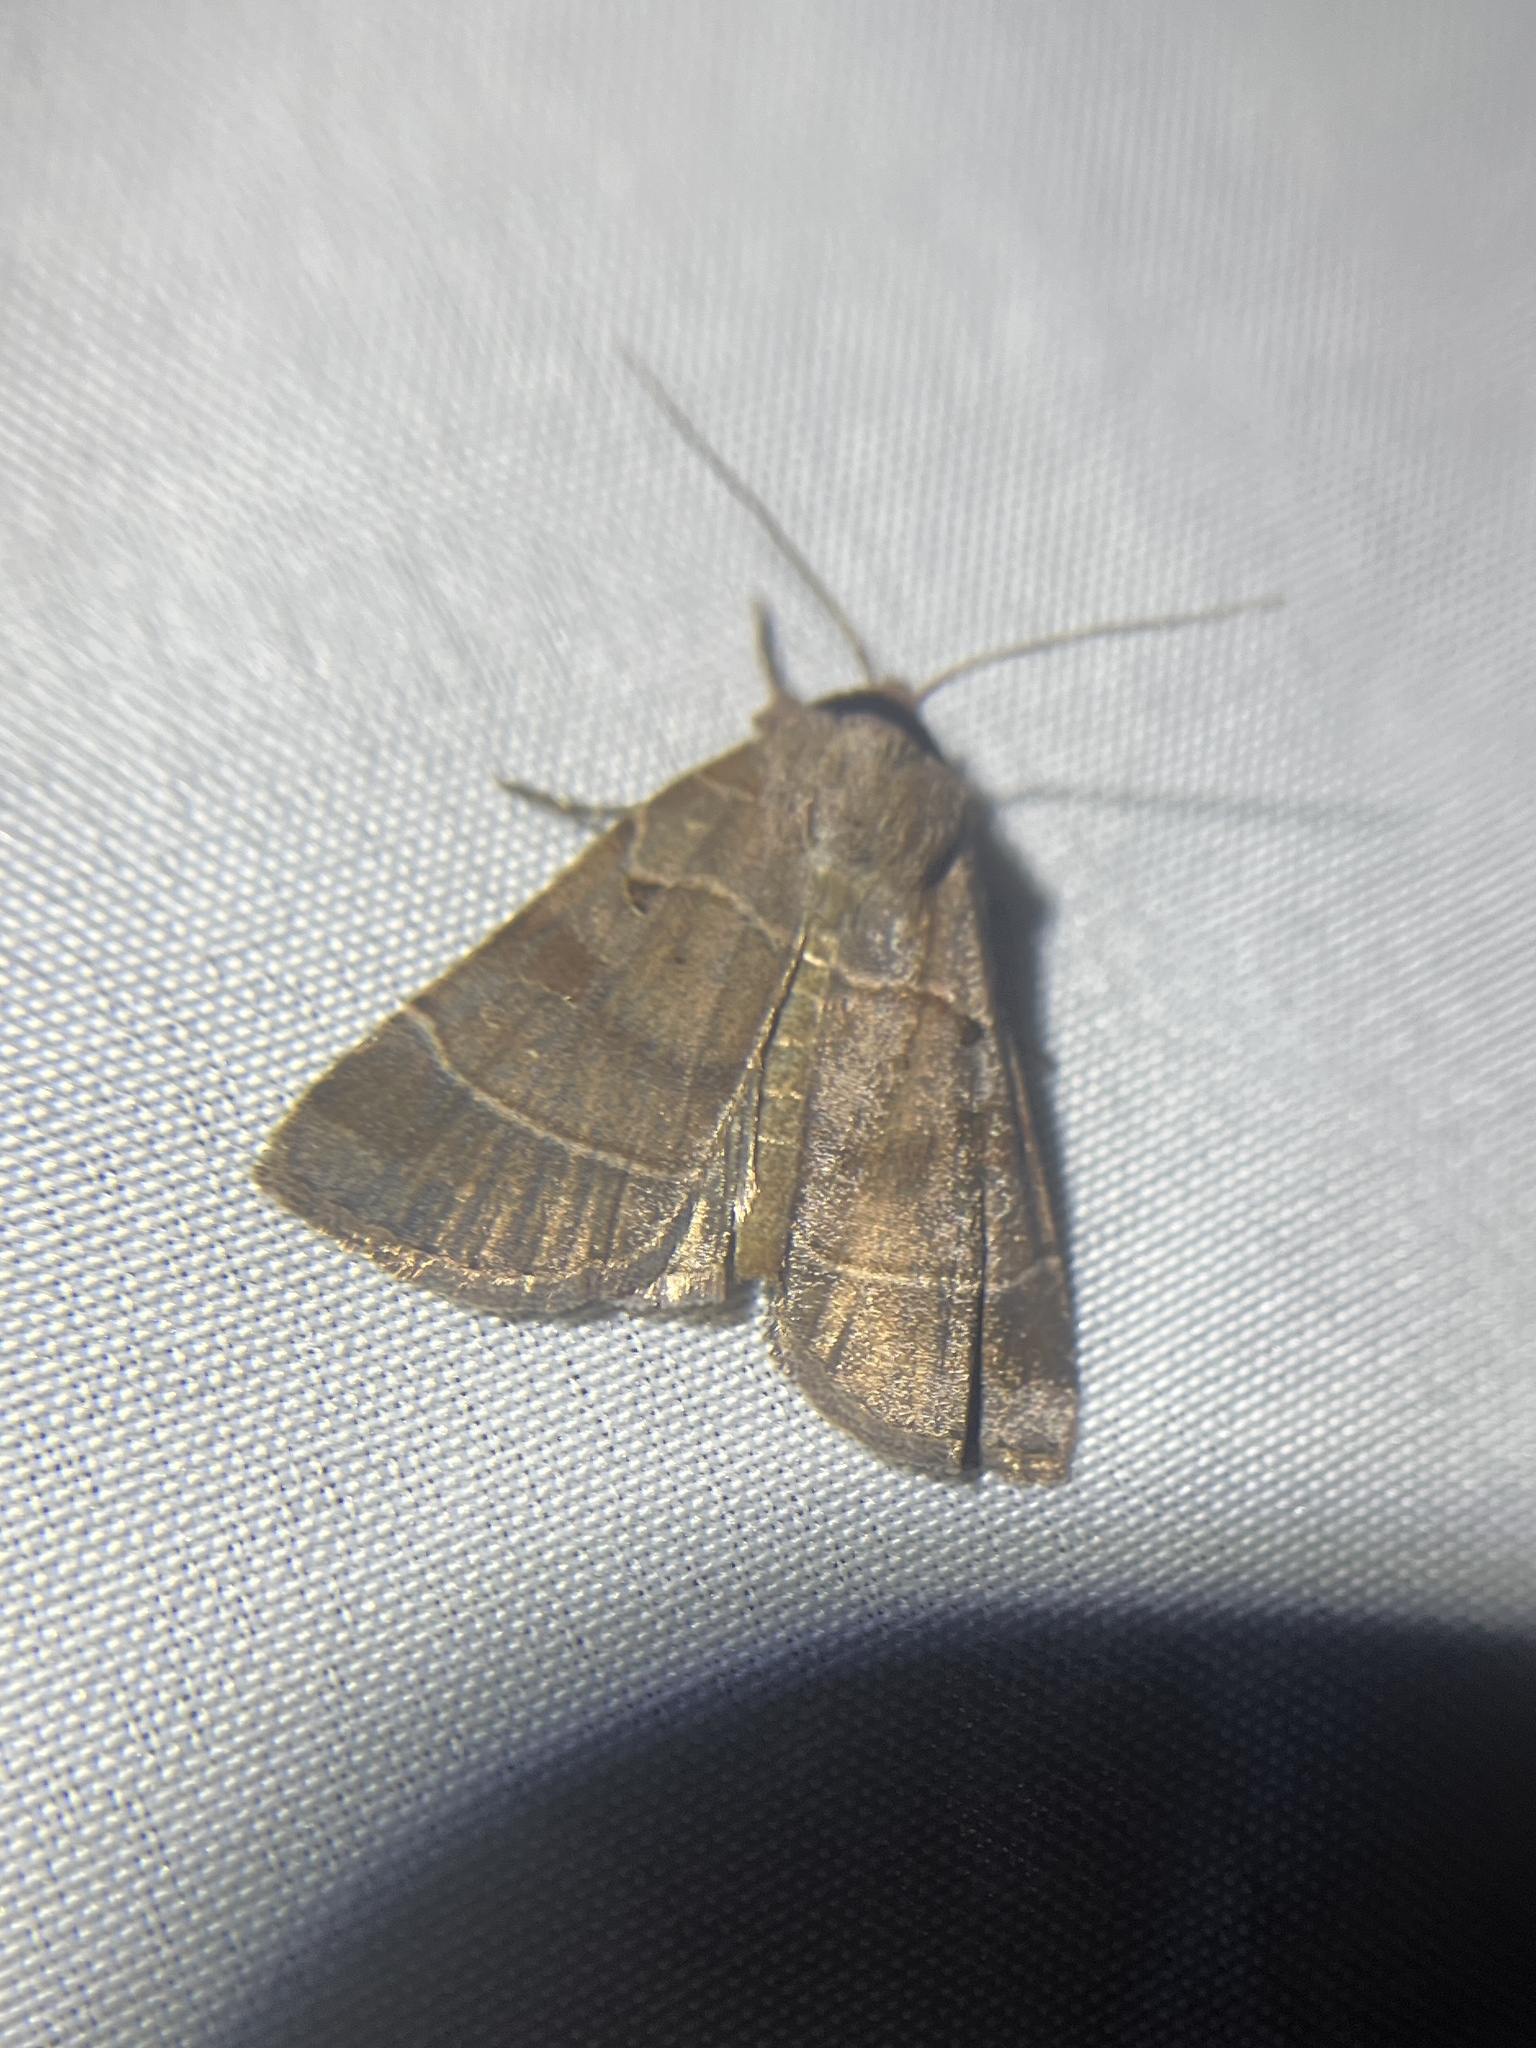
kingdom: Animalia
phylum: Arthropoda
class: Insecta
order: Lepidoptera
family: Noctuidae
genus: Agnorisma
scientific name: Agnorisma badinodis
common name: Pale-banded dart
